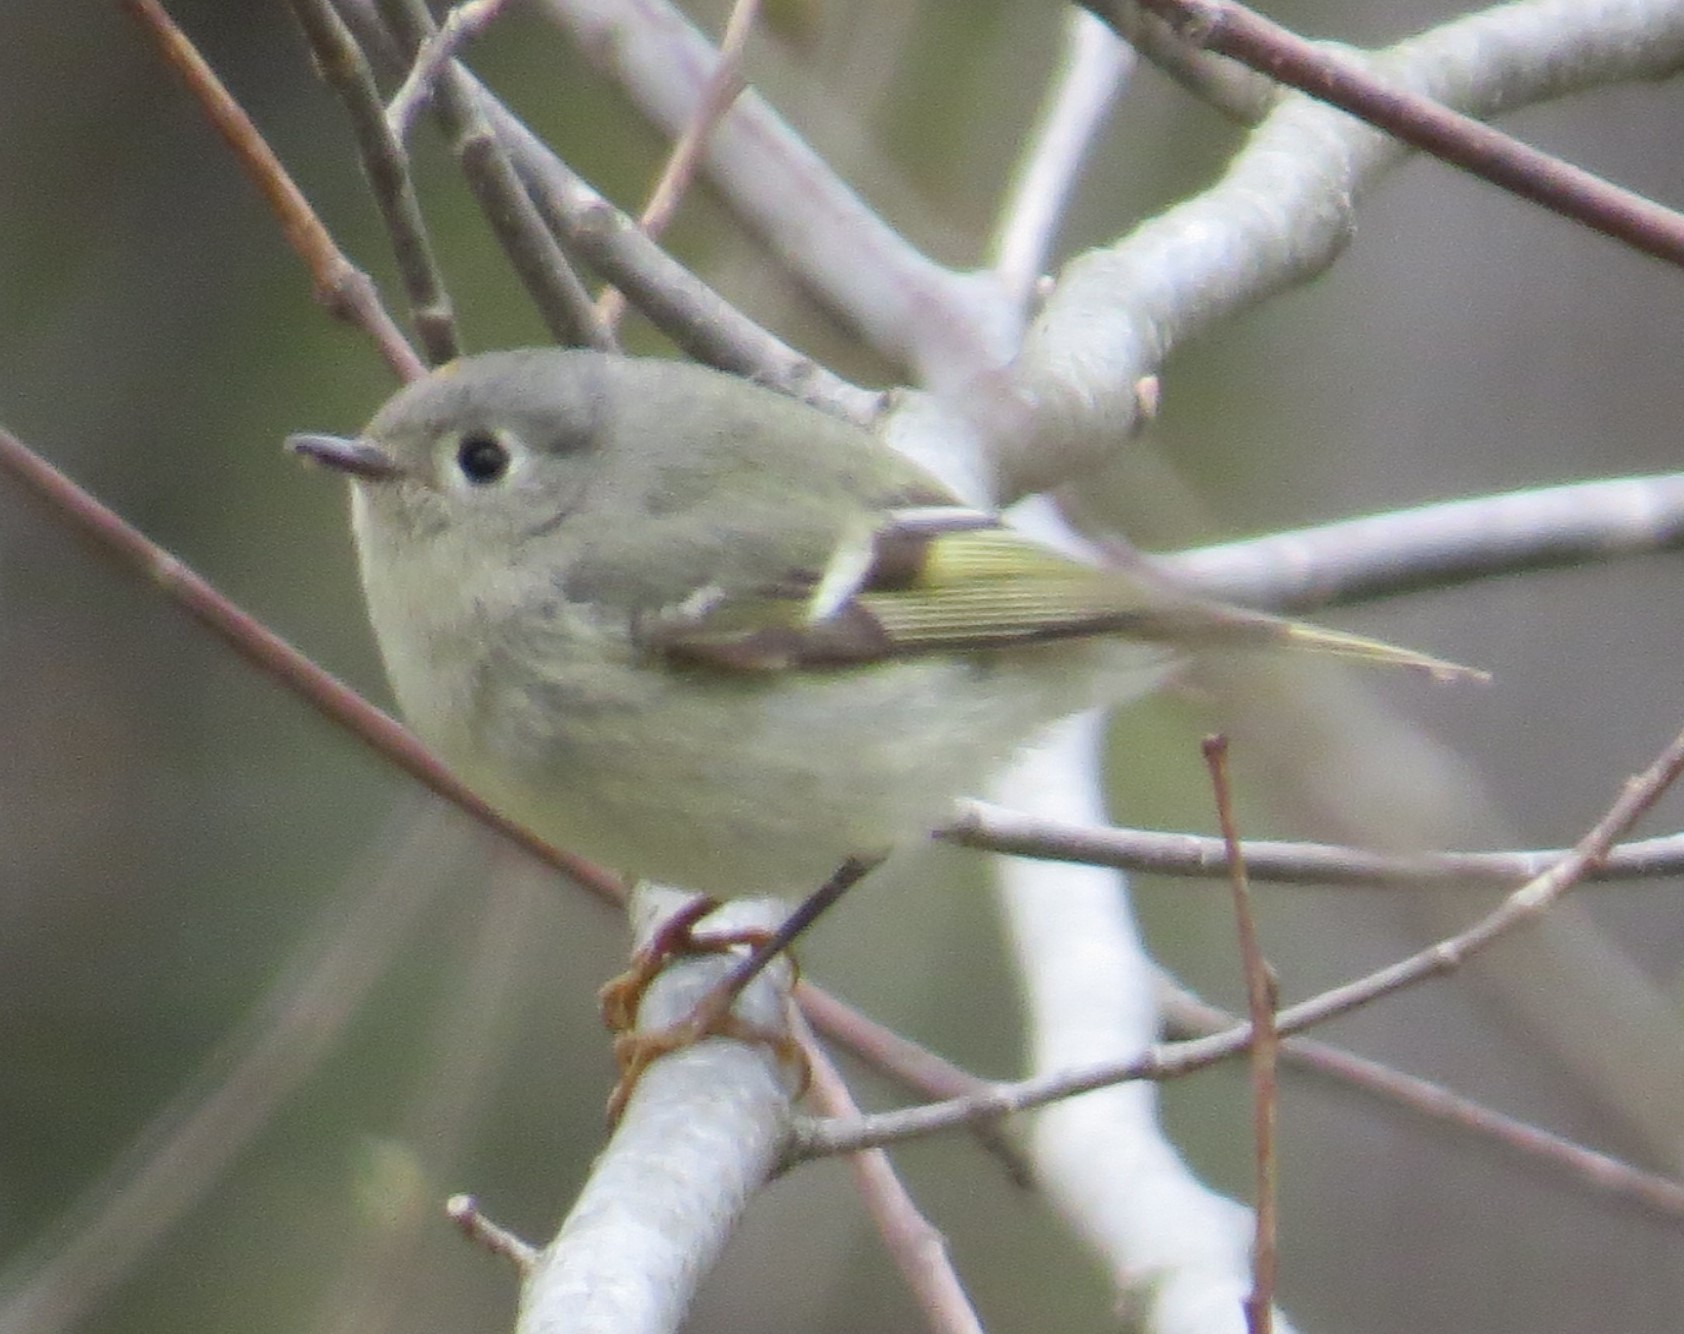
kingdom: Animalia
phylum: Chordata
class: Aves
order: Passeriformes
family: Regulidae
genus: Regulus
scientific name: Regulus calendula
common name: Ruby-crowned kinglet
